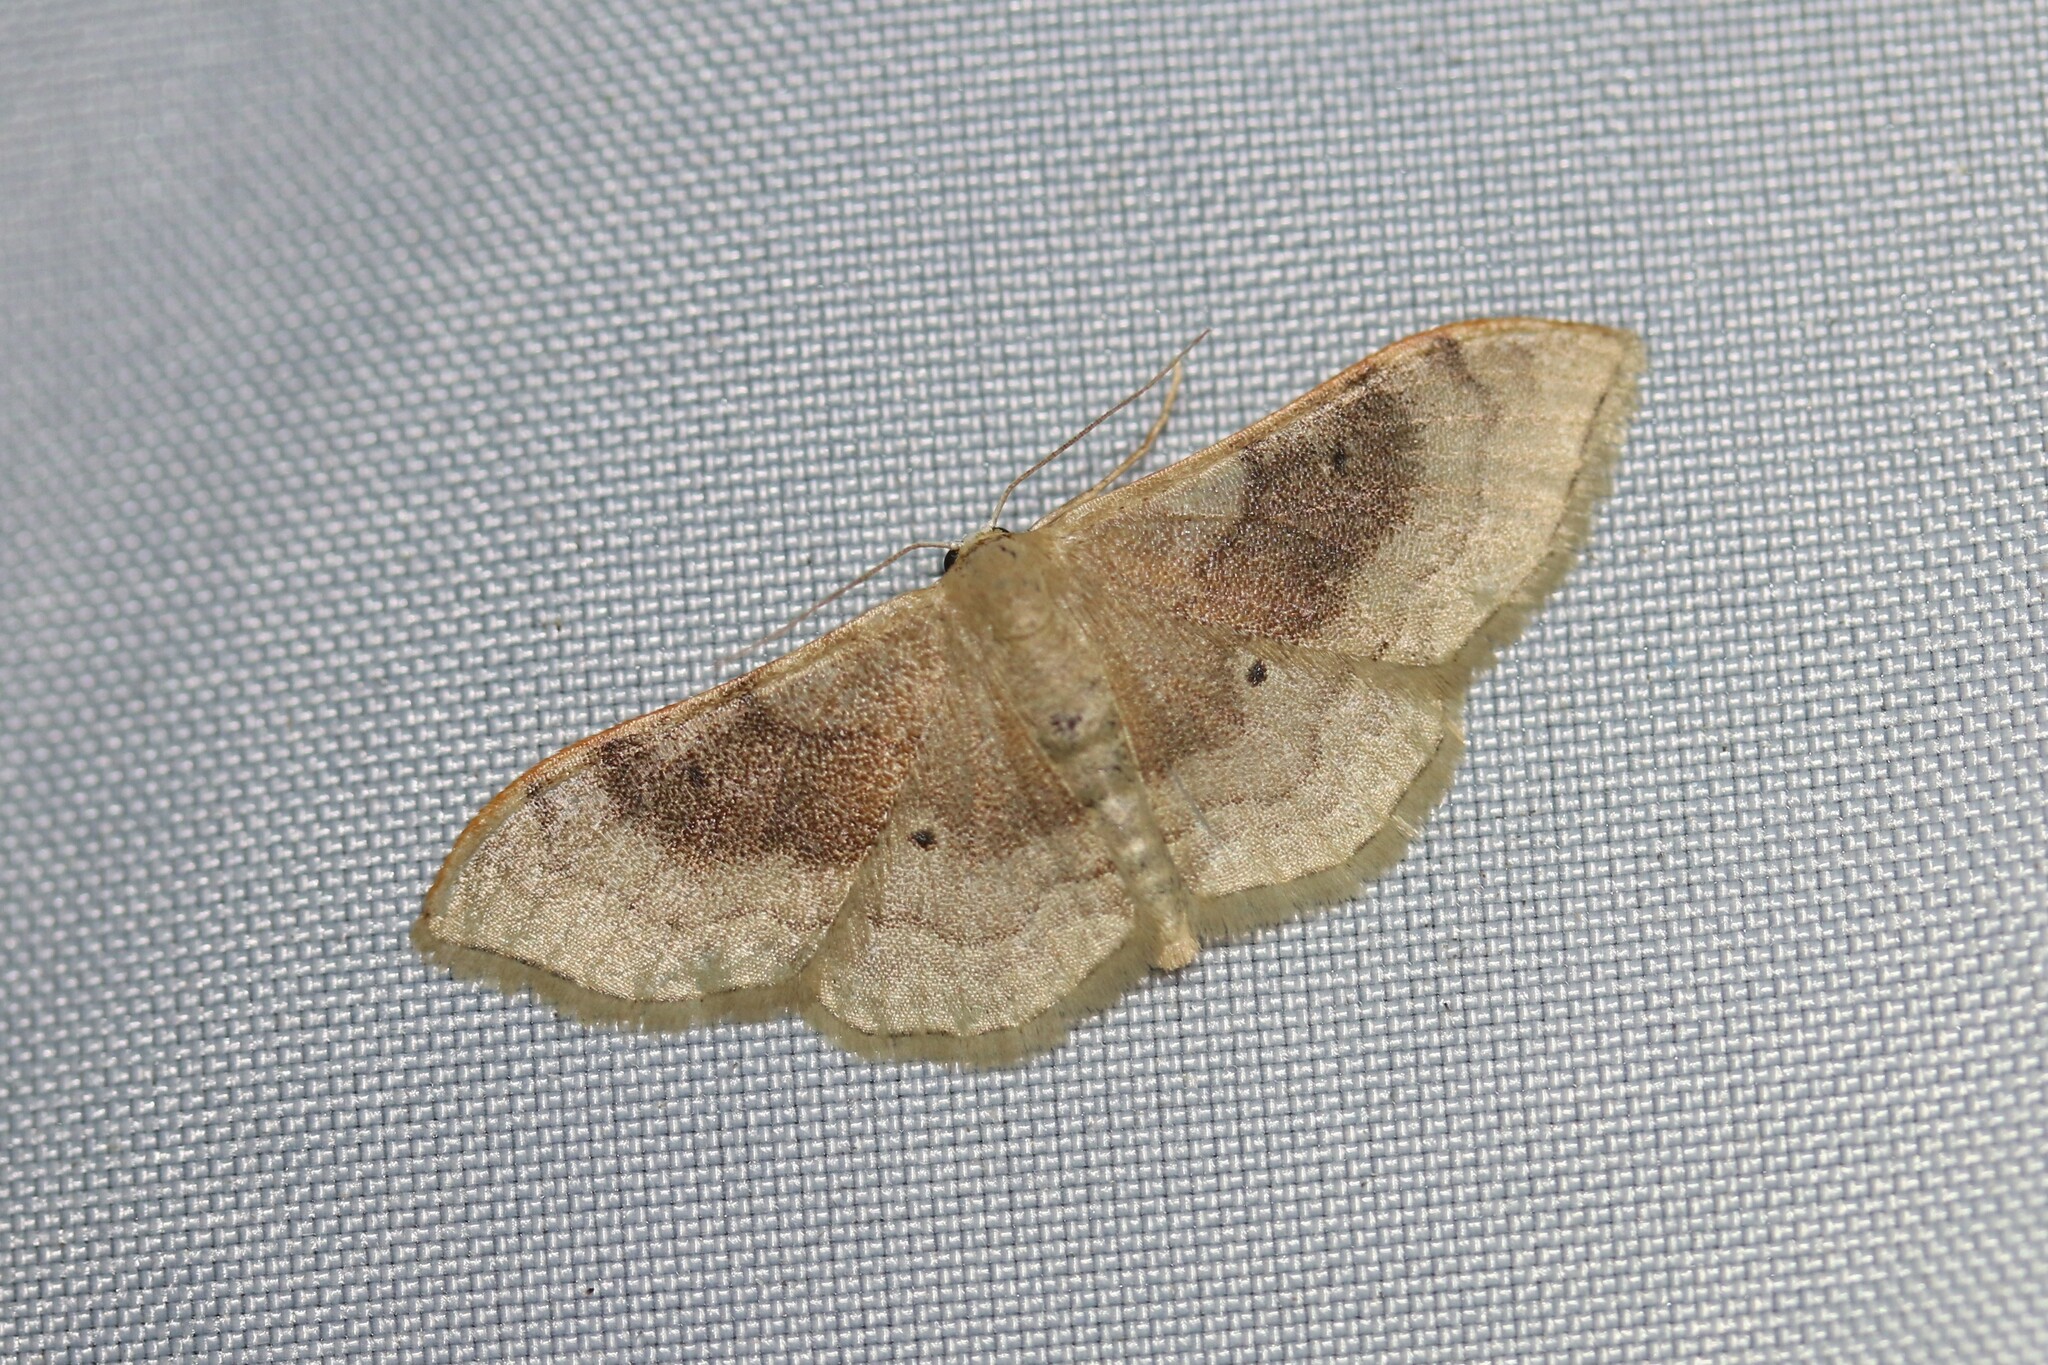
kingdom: Animalia
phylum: Arthropoda
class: Insecta
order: Lepidoptera
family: Geometridae
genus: Idaea
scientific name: Idaea degeneraria
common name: Portland ribbon wave
